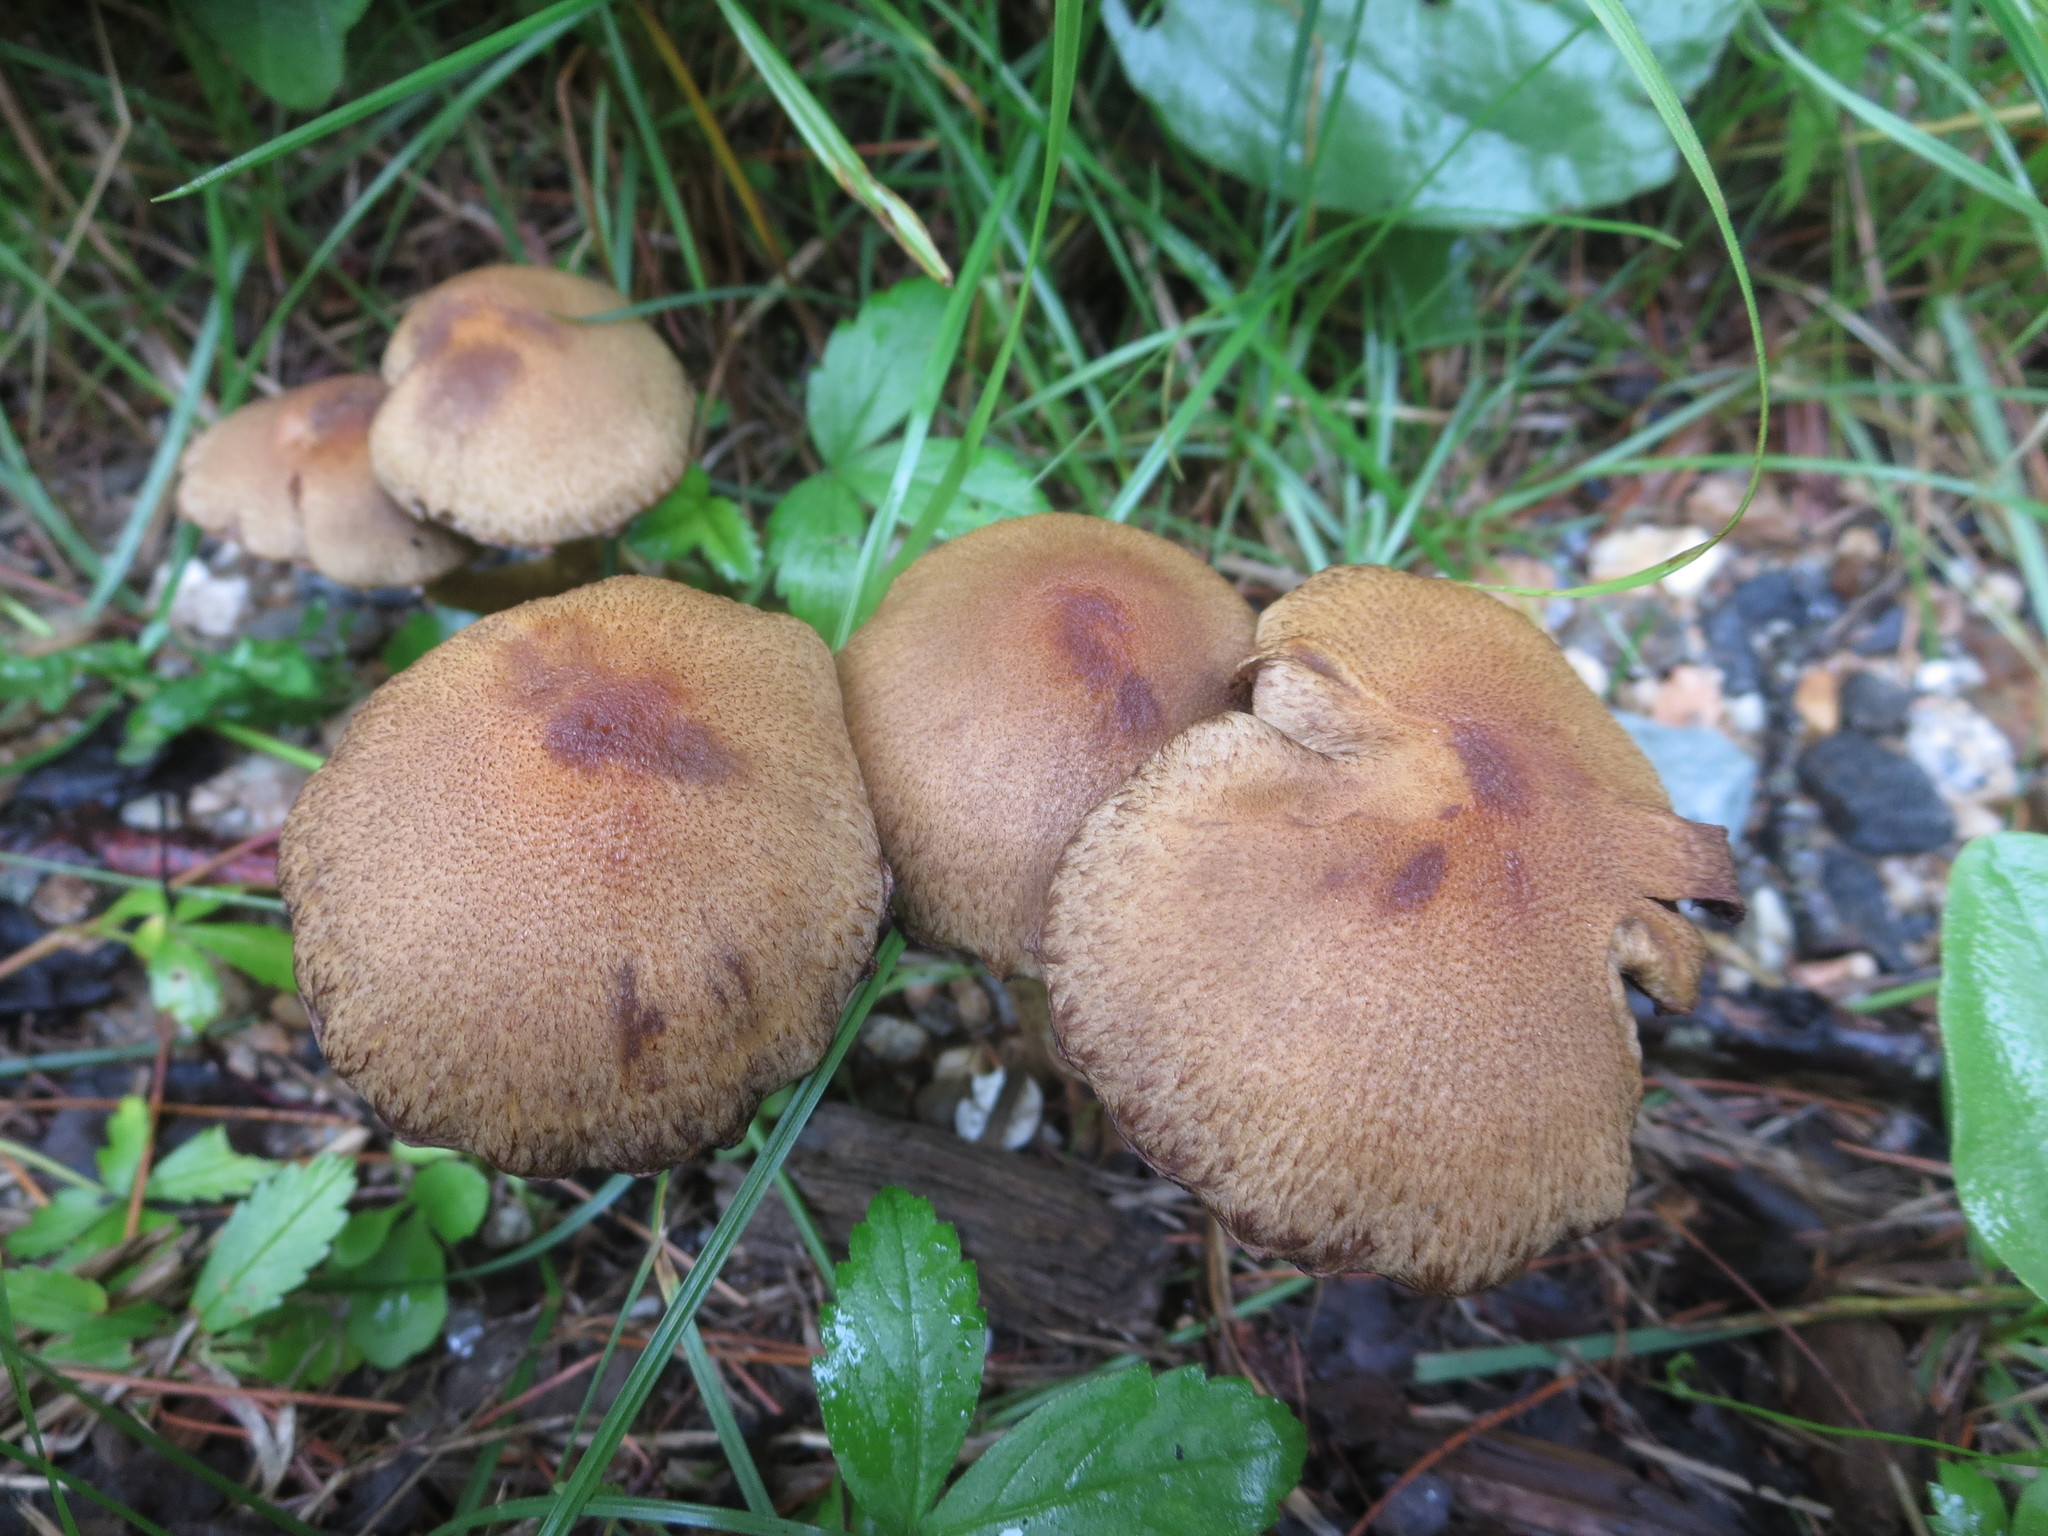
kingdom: Fungi
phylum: Basidiomycota
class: Agaricomycetes
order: Agaricales
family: Psathyrellaceae
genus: Lacrymaria
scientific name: Lacrymaria lacrymabunda
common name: Weeping widow
